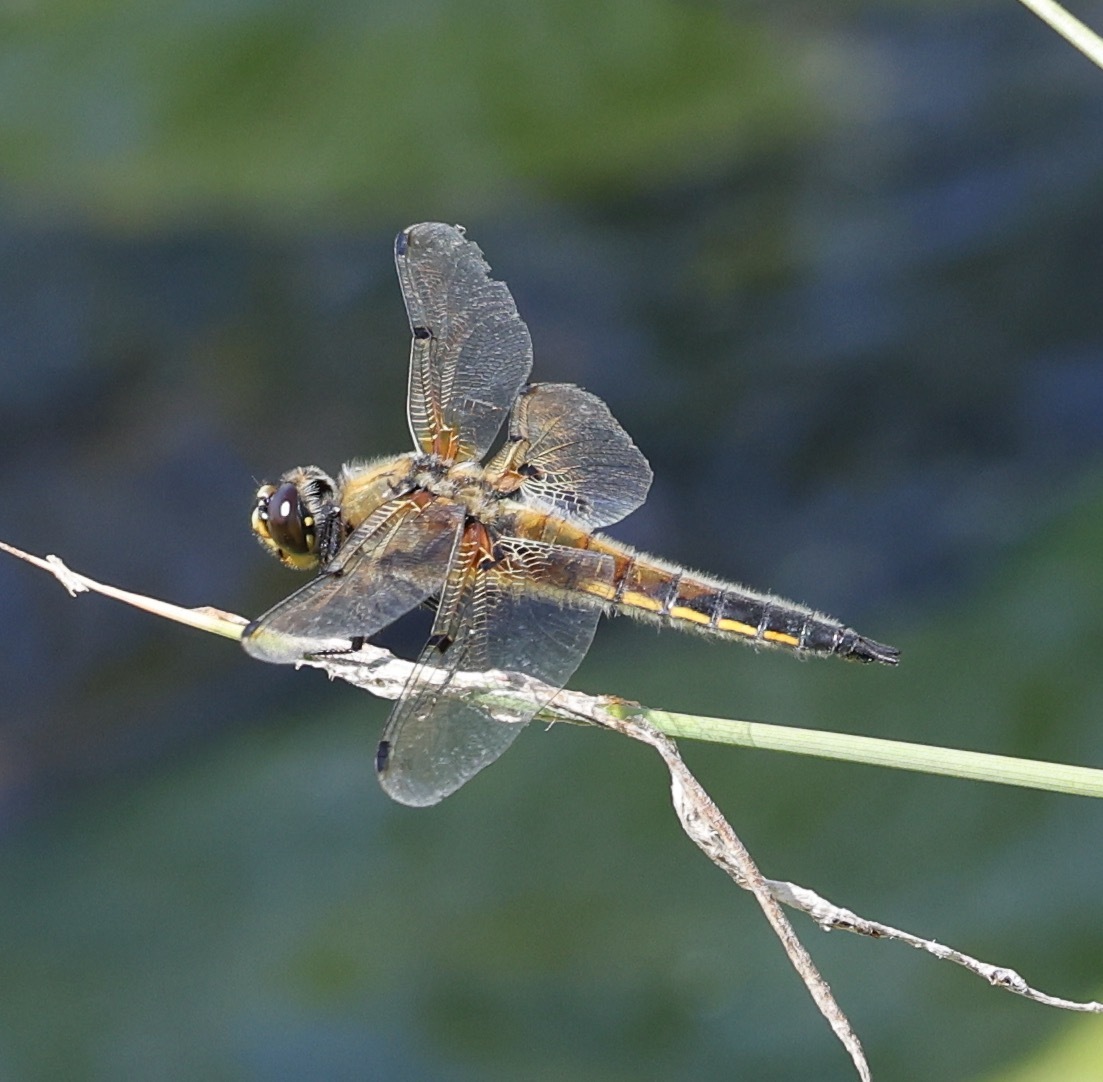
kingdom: Animalia
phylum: Arthropoda
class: Insecta
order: Odonata
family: Libellulidae
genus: Libellula
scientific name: Libellula quadrimaculata
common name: Four-spotted chaser
